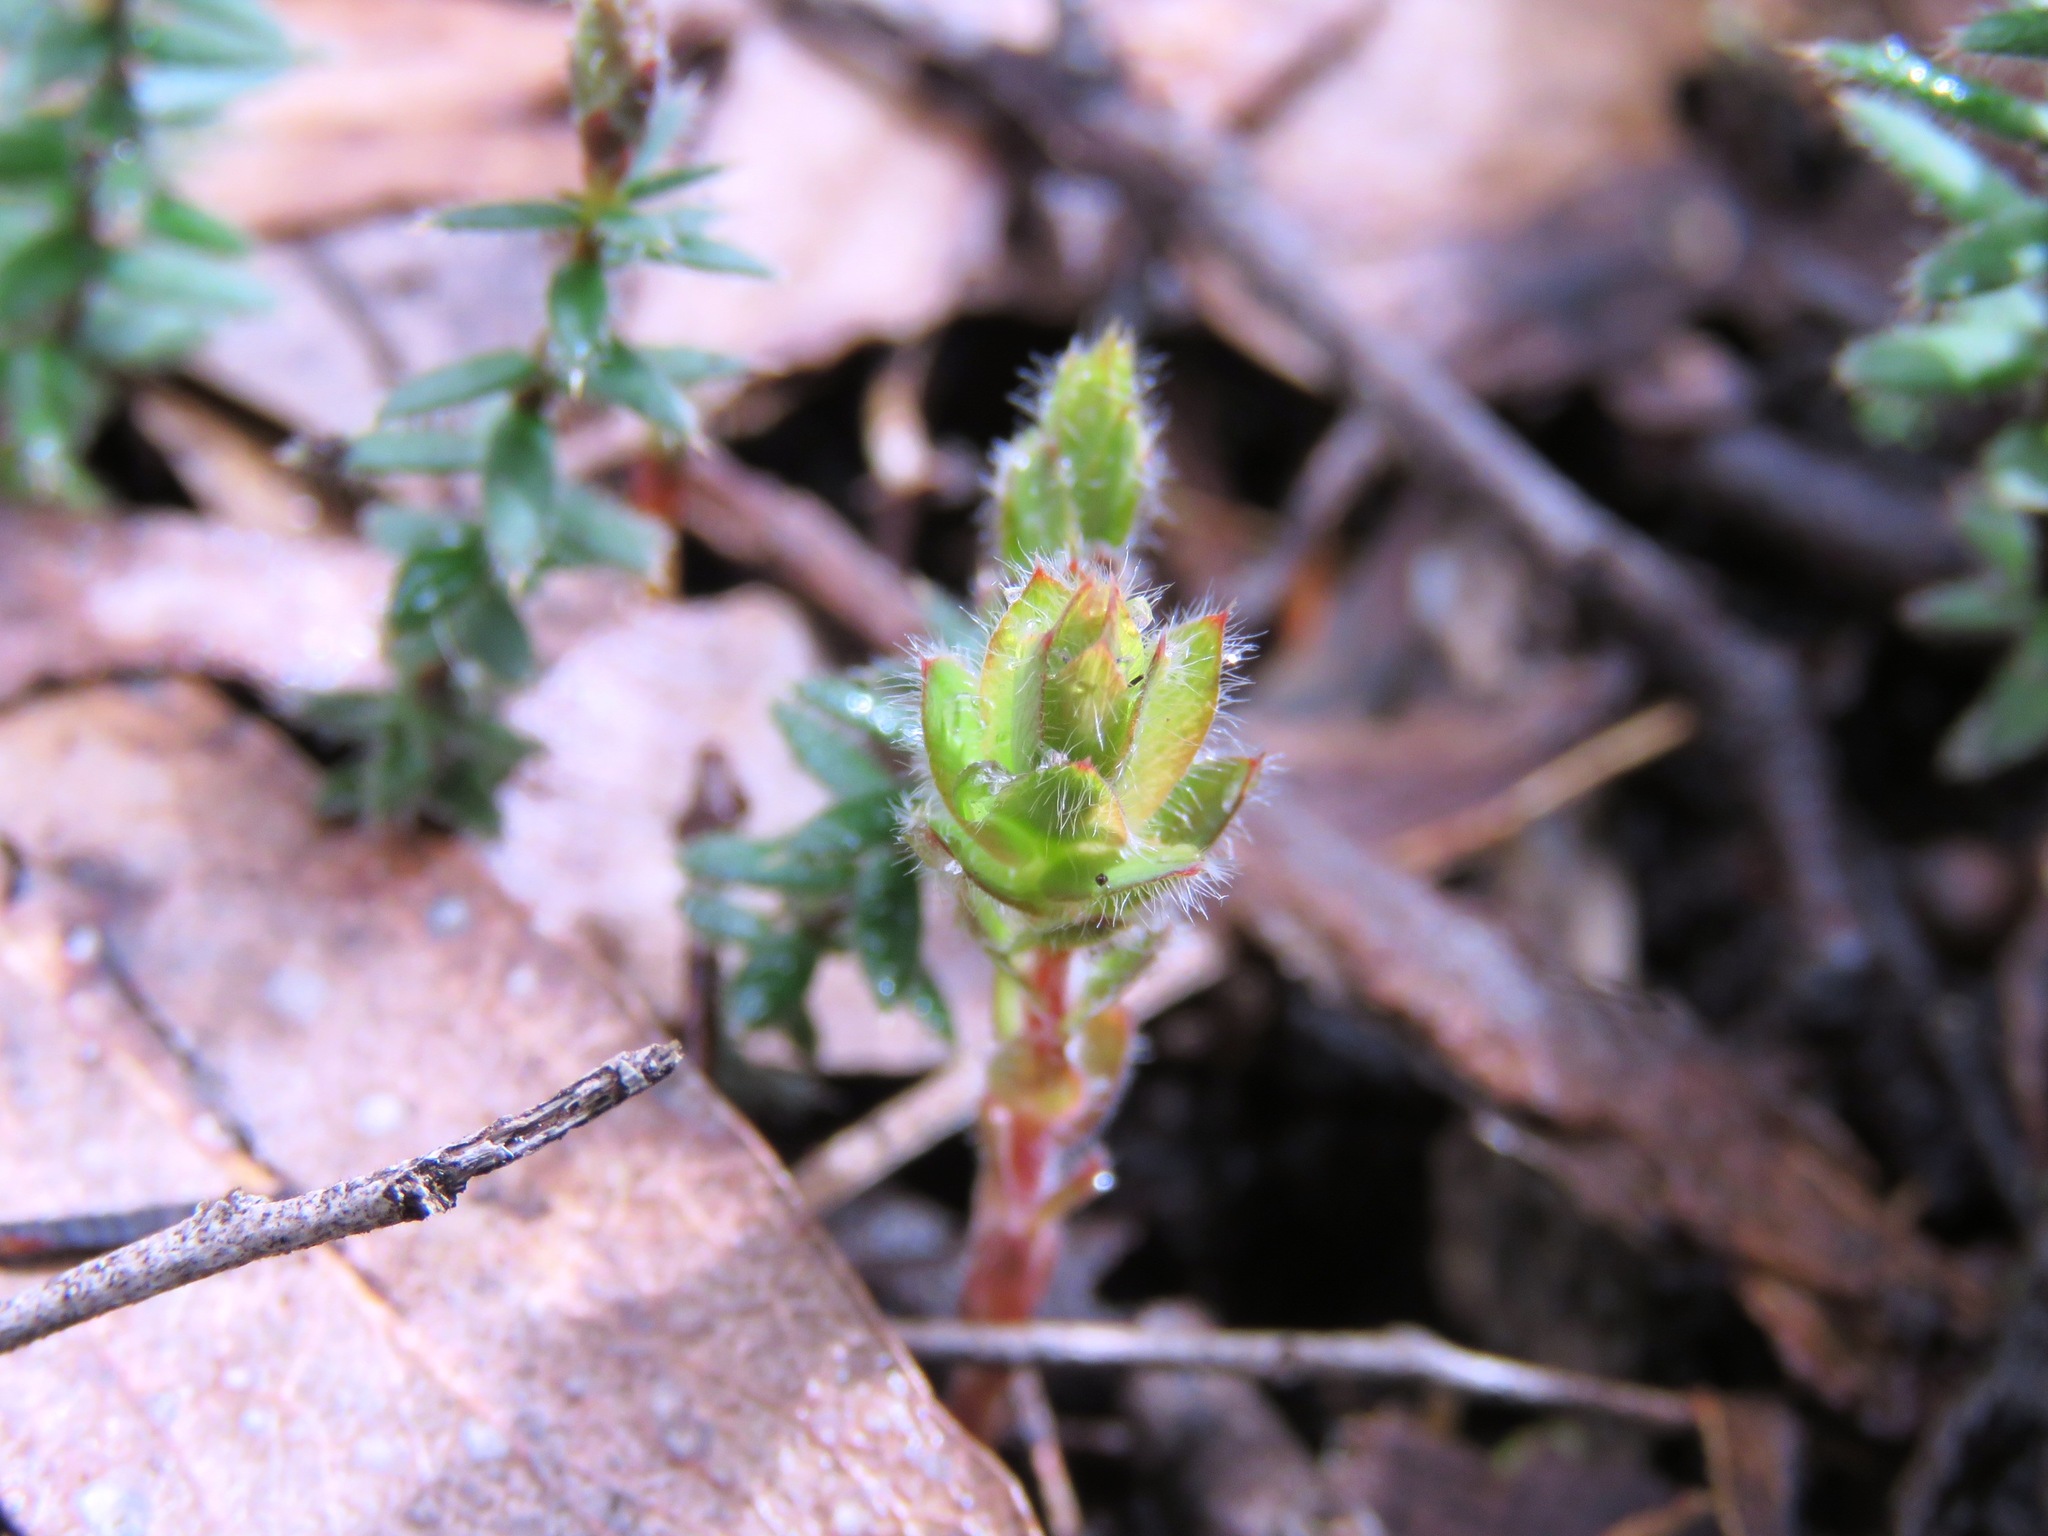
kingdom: Plantae
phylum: Tracheophyta
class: Magnoliopsida
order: Ericales
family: Ericaceae
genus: Acrotriche
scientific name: Acrotriche prostrata
